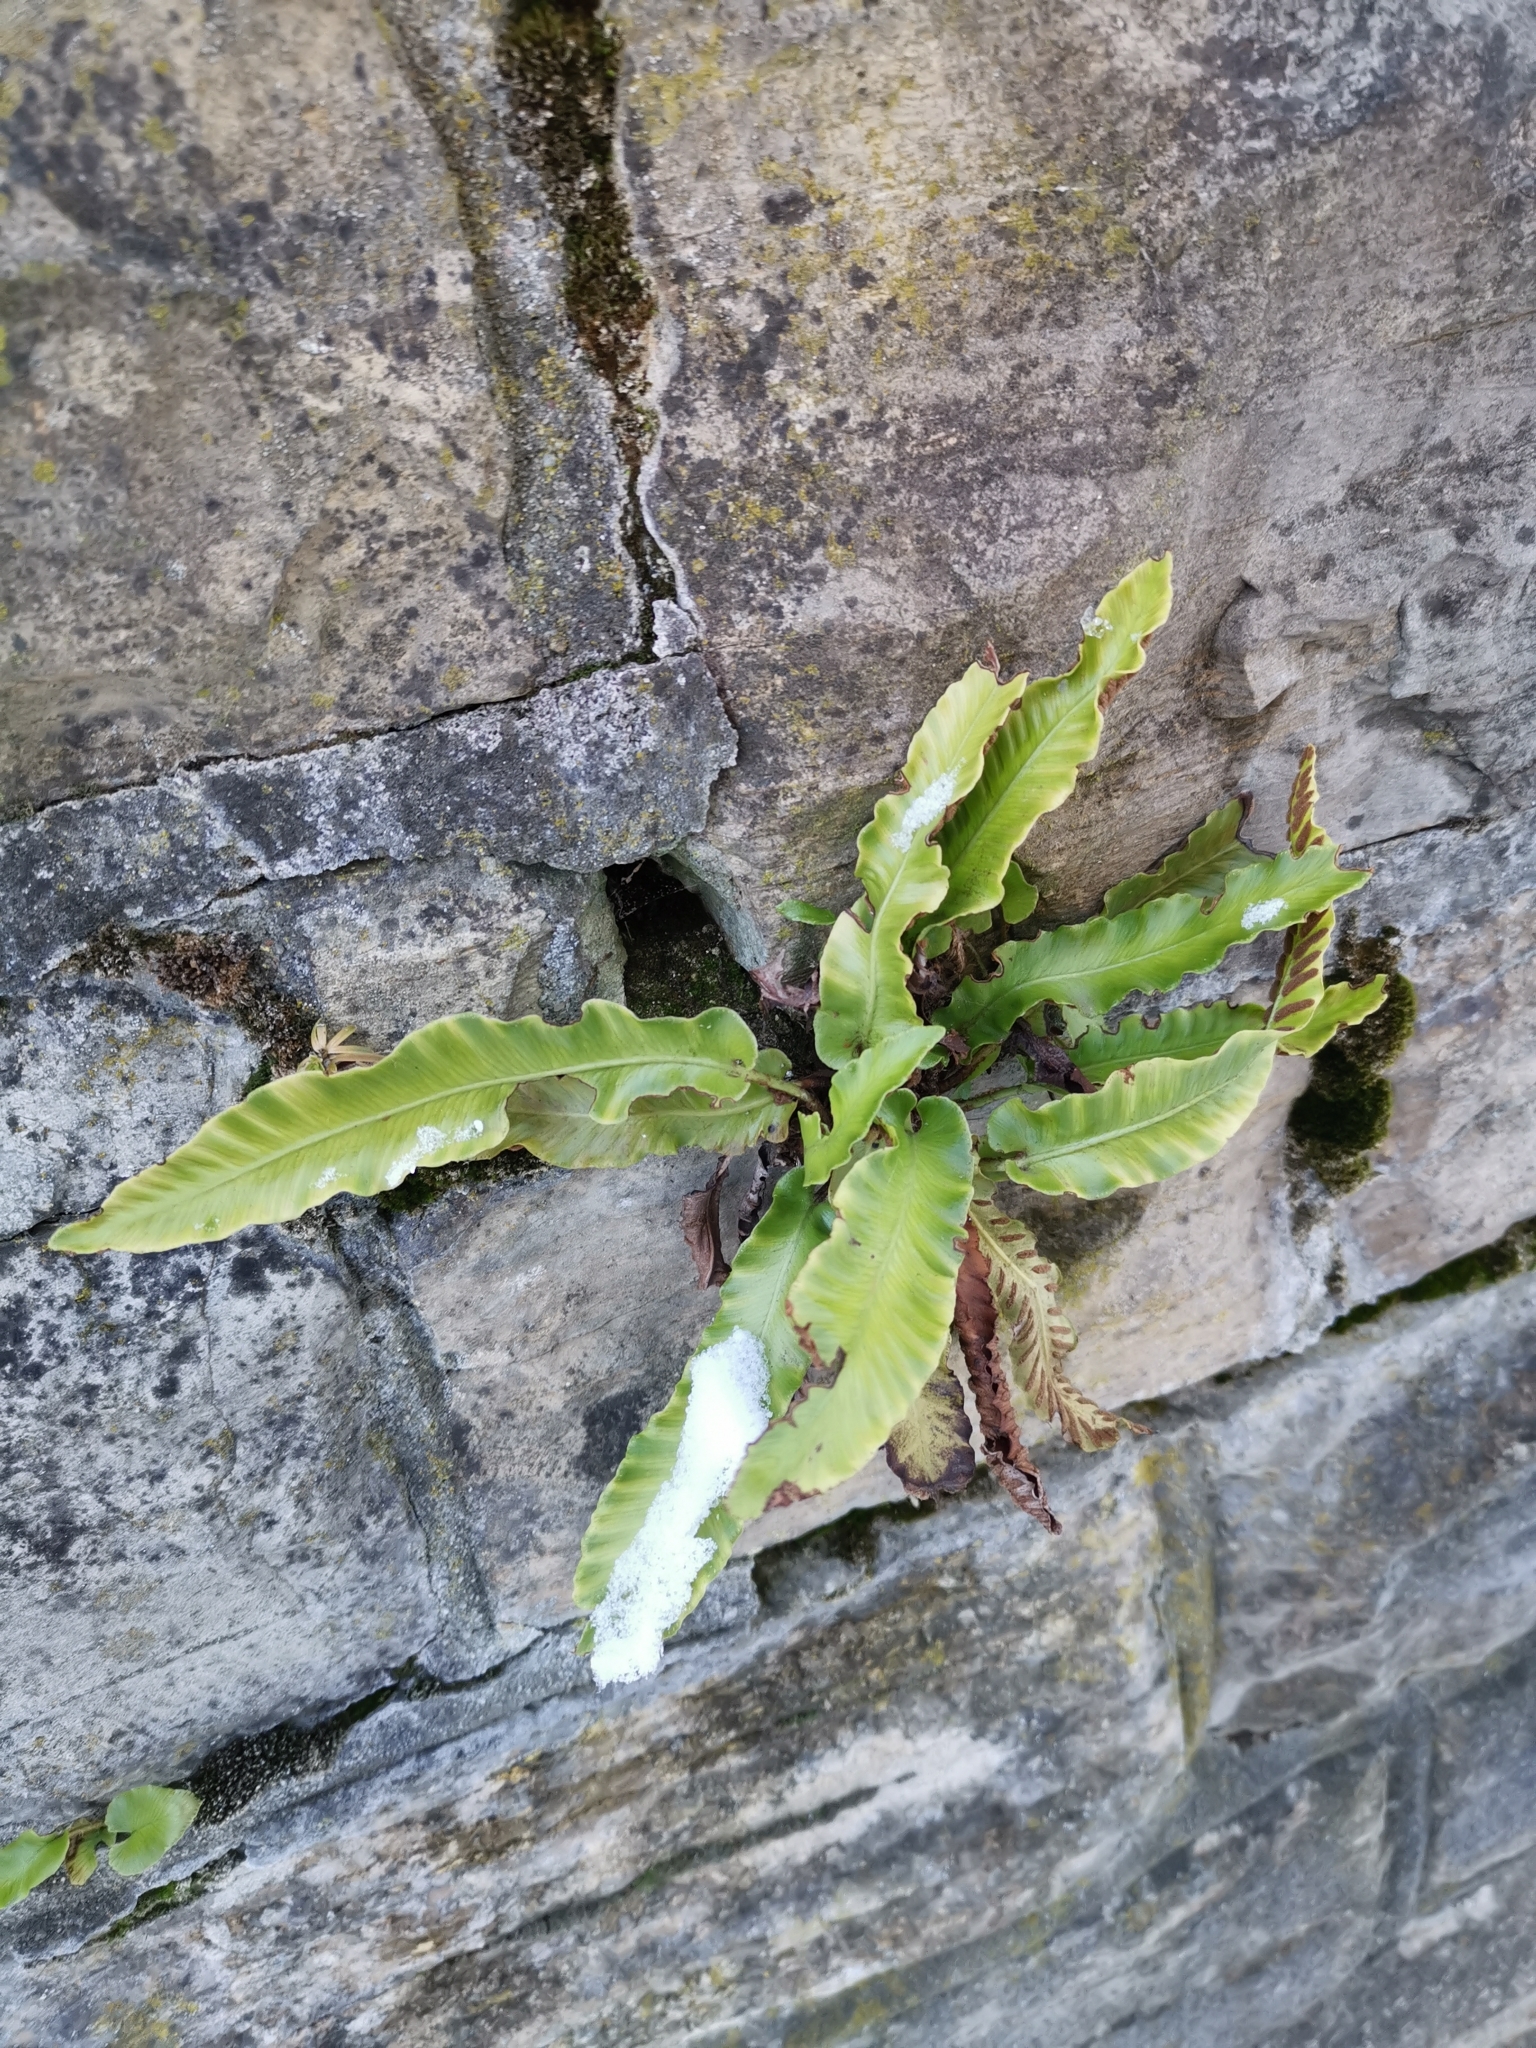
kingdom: Plantae
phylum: Tracheophyta
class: Polypodiopsida
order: Polypodiales
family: Aspleniaceae
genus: Asplenium
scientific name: Asplenium scolopendrium
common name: Hart's-tongue fern
